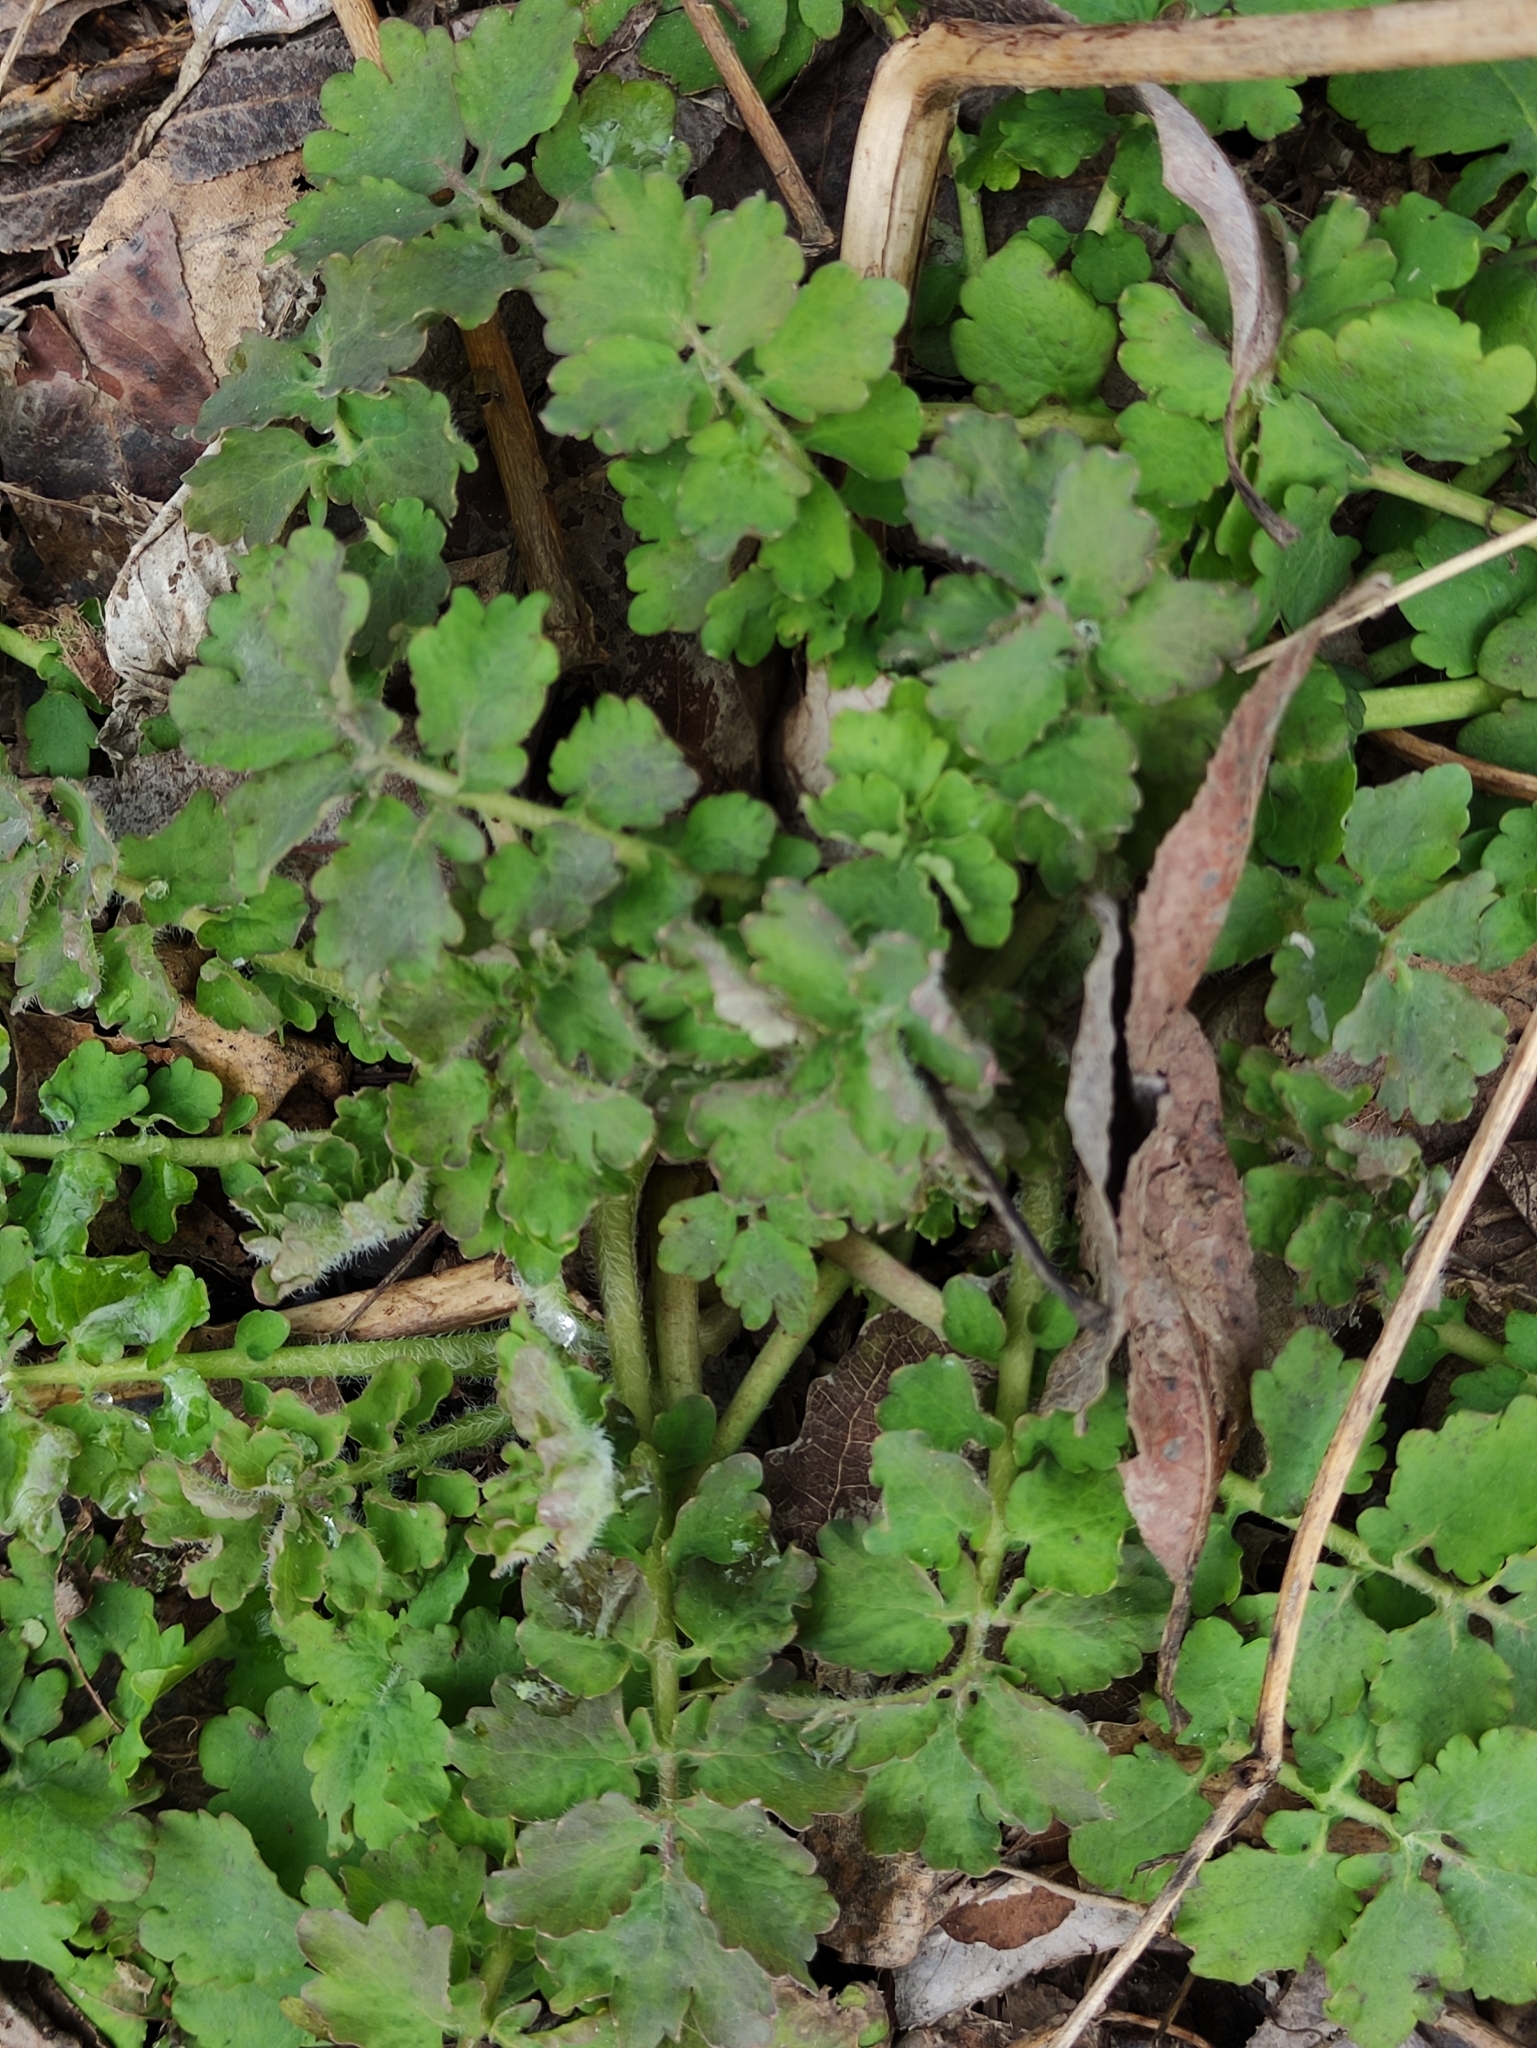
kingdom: Plantae
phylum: Tracheophyta
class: Magnoliopsida
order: Ranunculales
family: Papaveraceae
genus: Chelidonium
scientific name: Chelidonium majus
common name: Greater celandine
